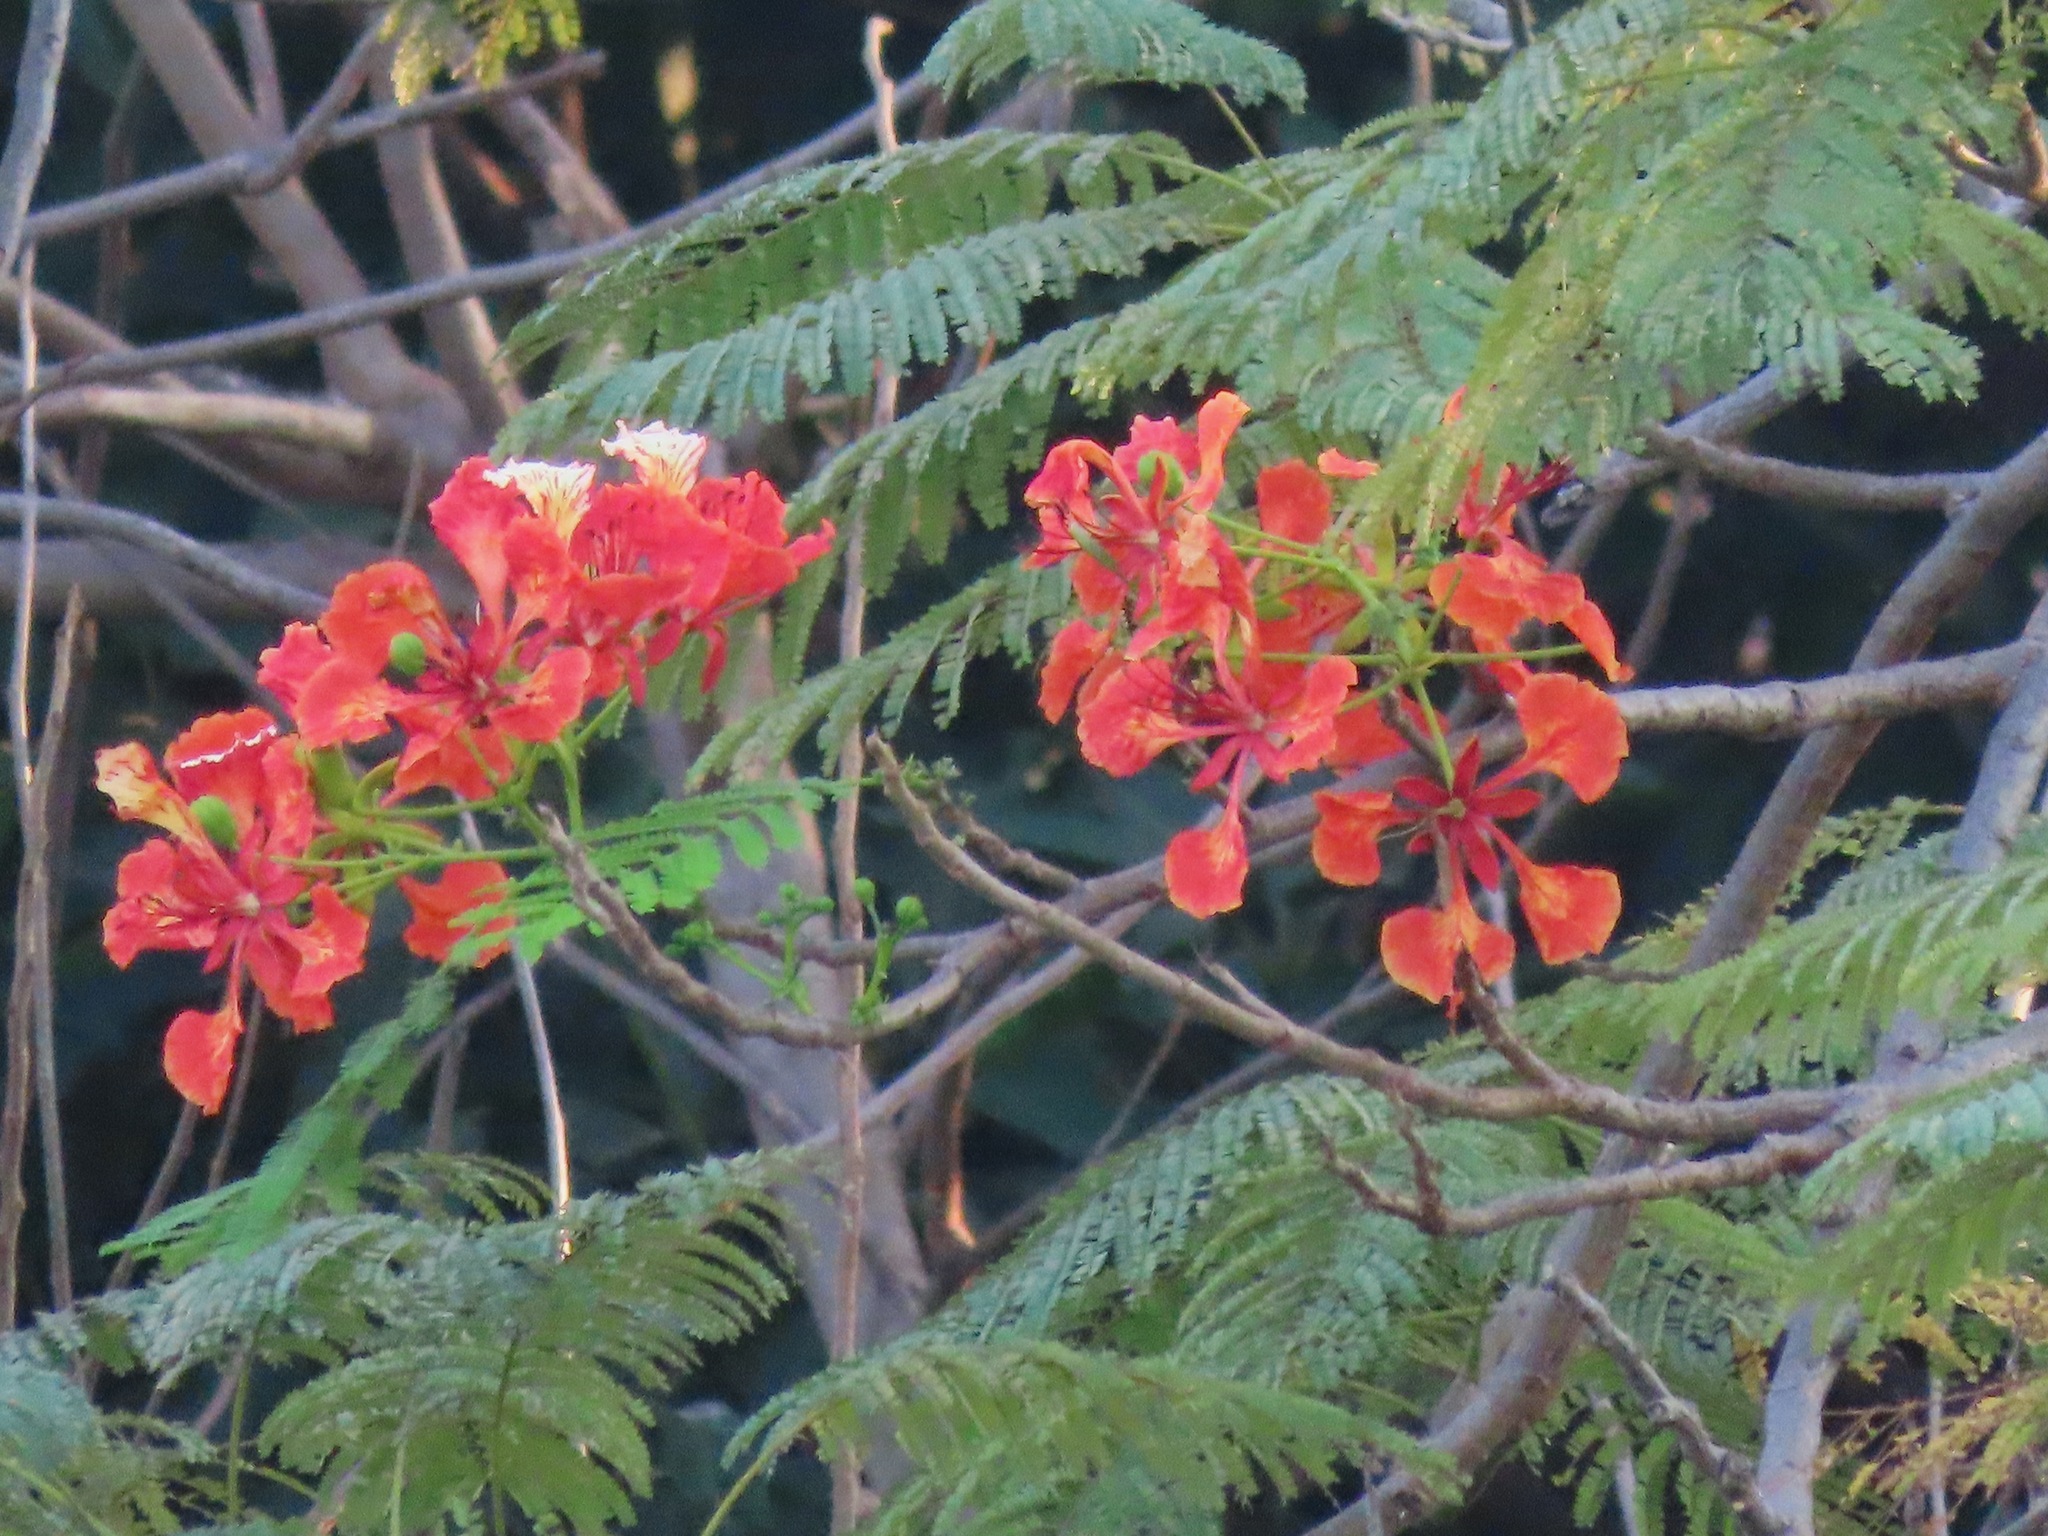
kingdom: Plantae
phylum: Tracheophyta
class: Magnoliopsida
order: Fabales
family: Fabaceae
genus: Delonix
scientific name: Delonix regia
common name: Royal poinciana
